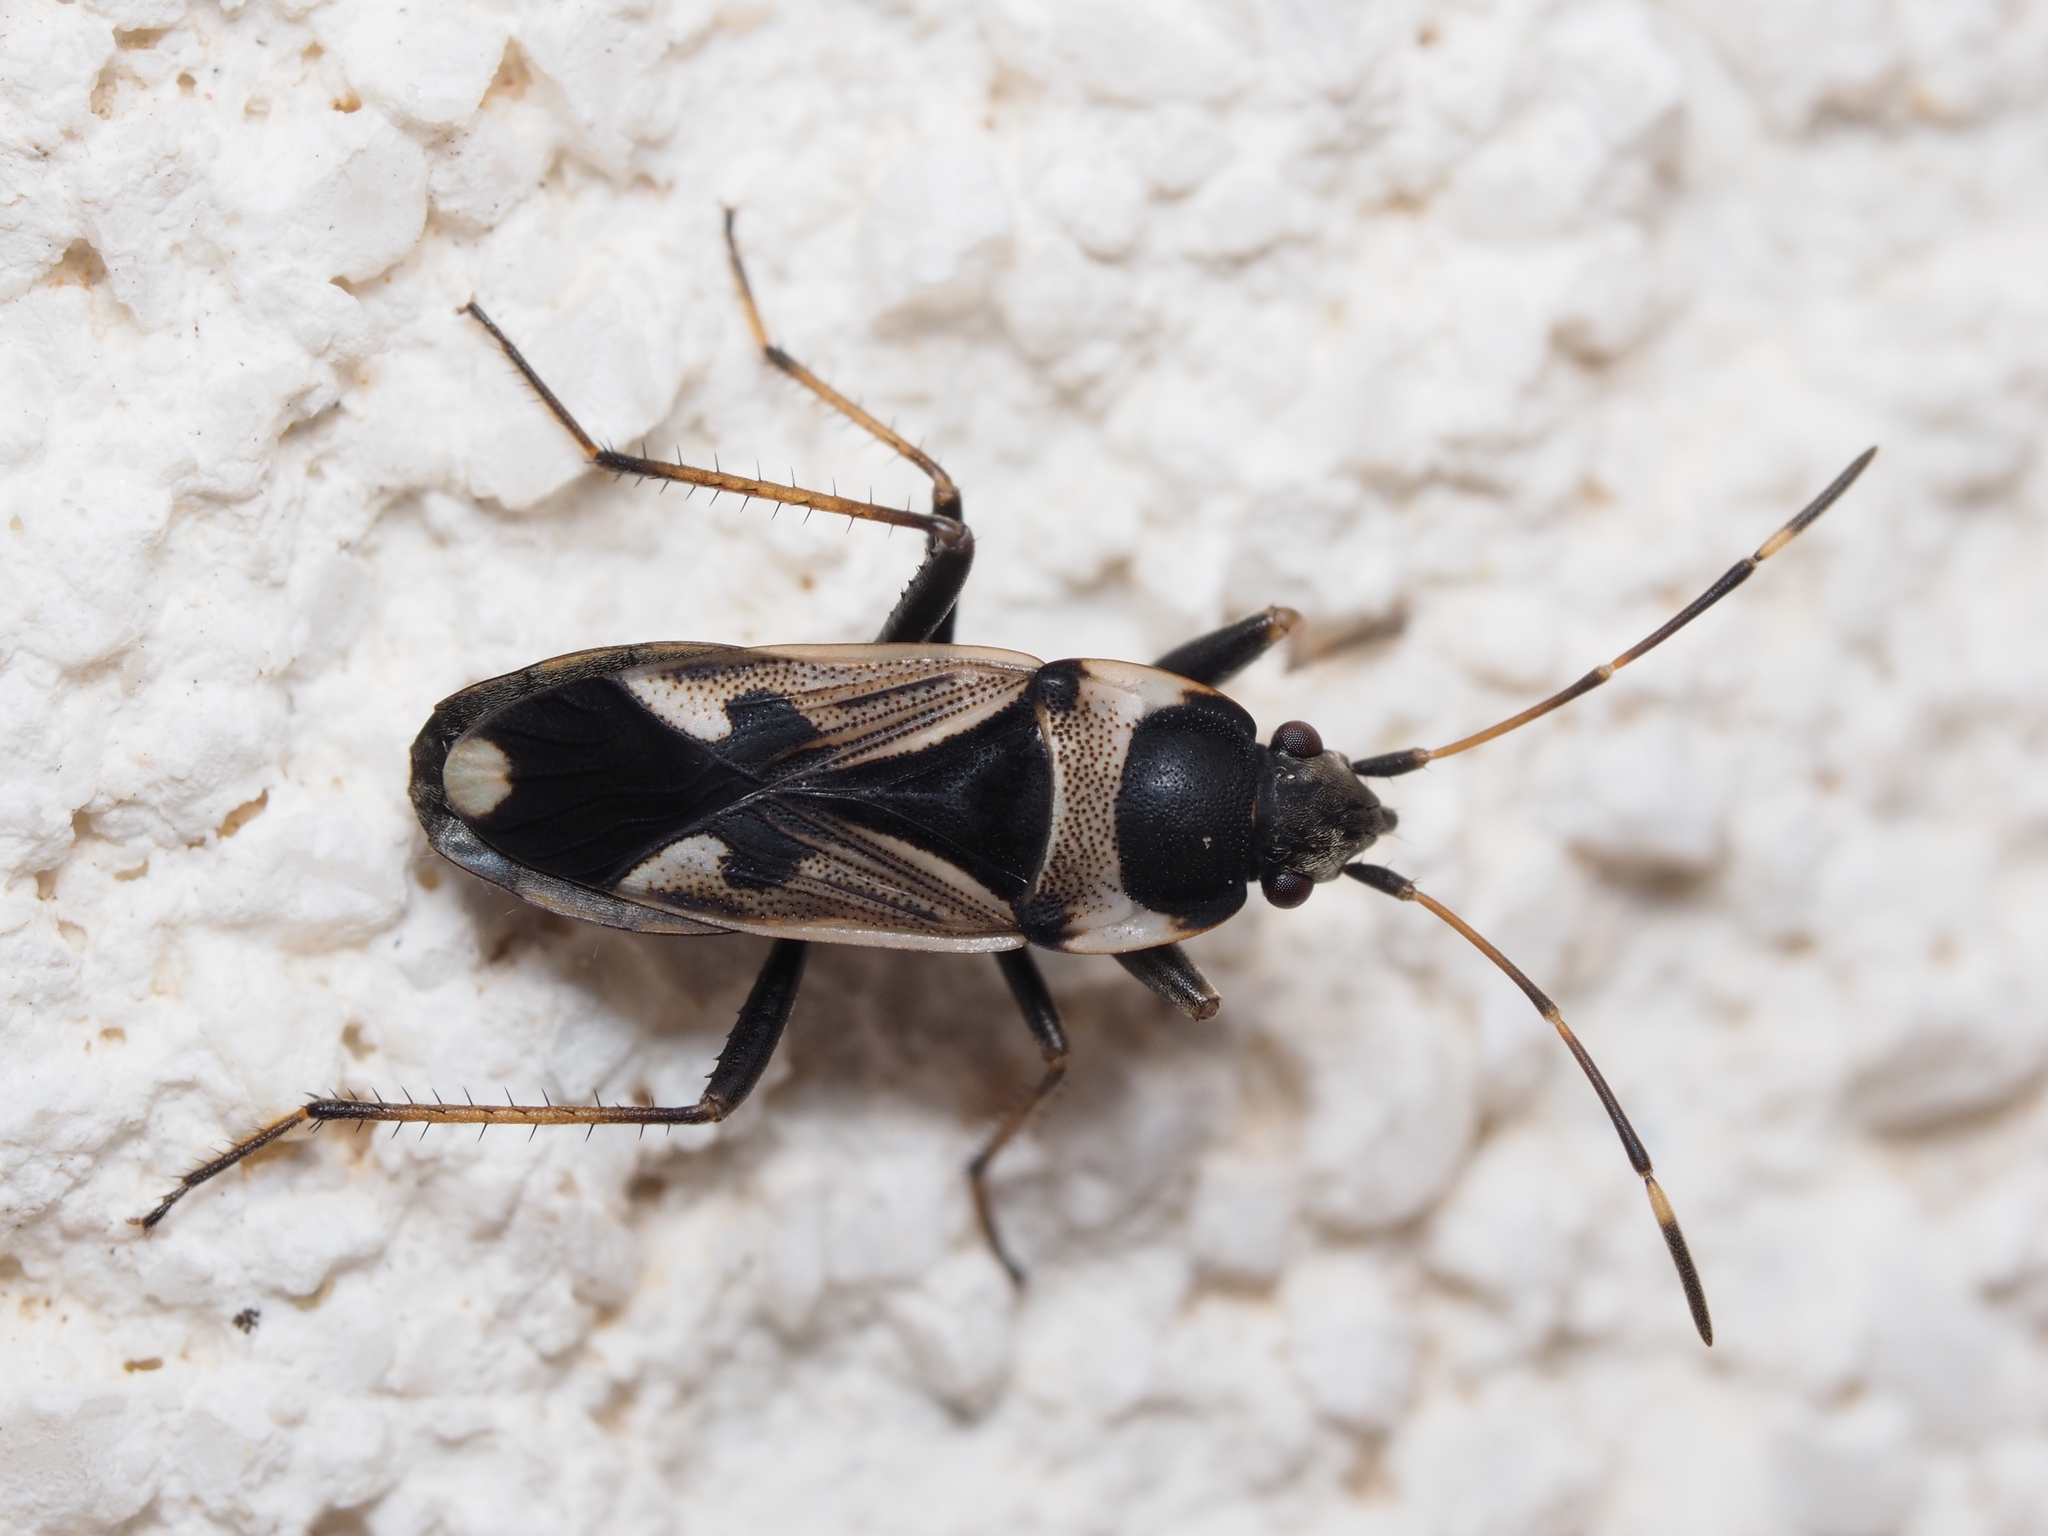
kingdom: Animalia
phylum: Arthropoda
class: Insecta
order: Hemiptera
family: Rhyparochromidae
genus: Raglius
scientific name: Raglius confusus
